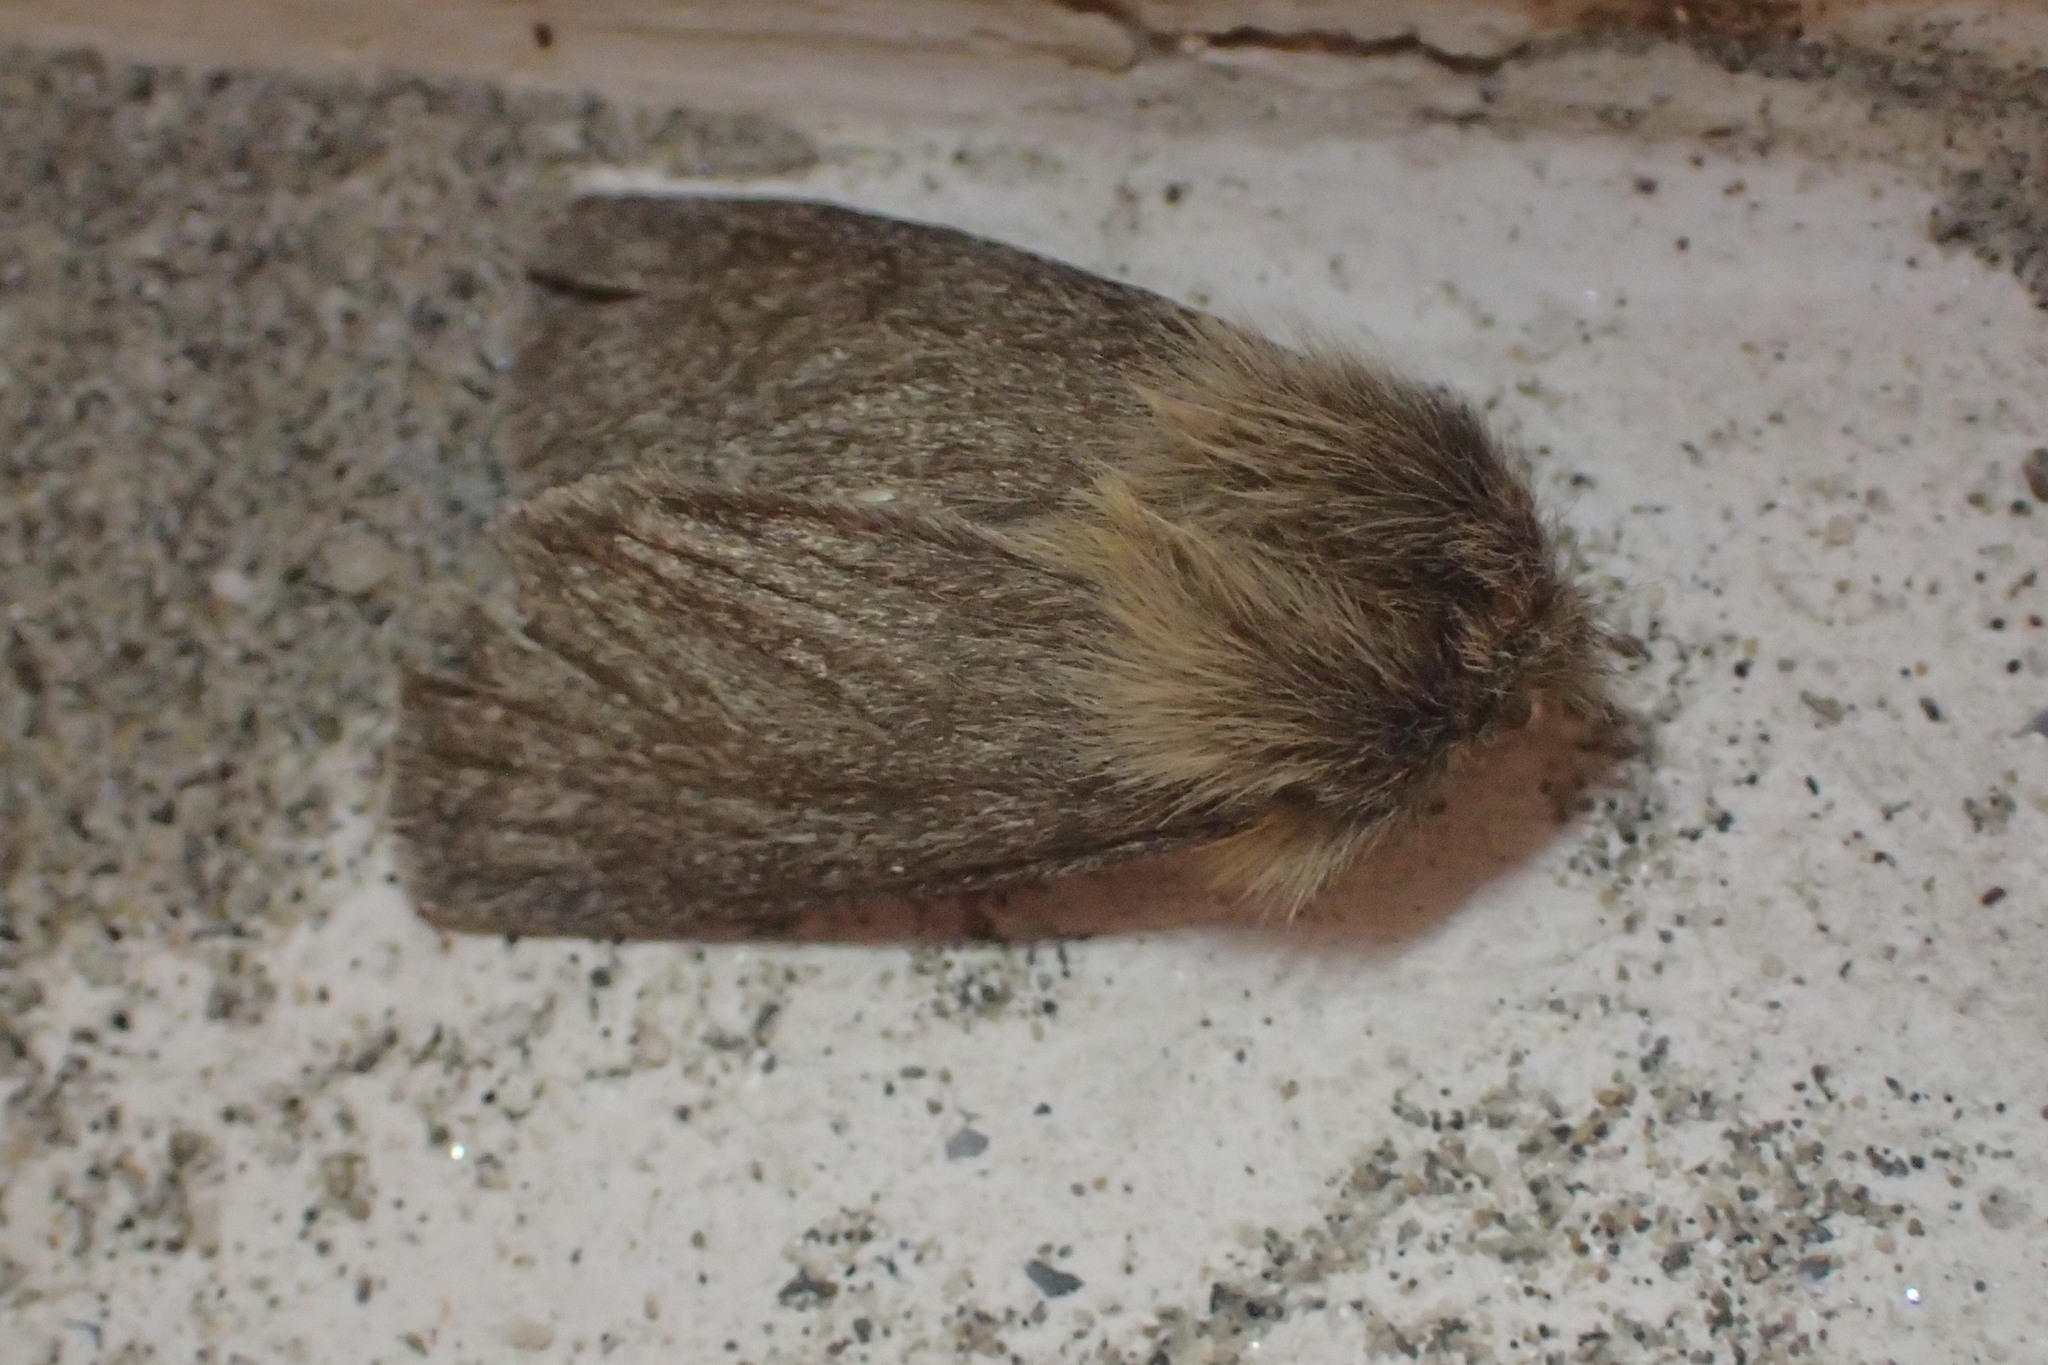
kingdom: Animalia
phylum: Arthropoda
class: Insecta
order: Lepidoptera
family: Erebidae
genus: Paracles
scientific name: Paracles severa
